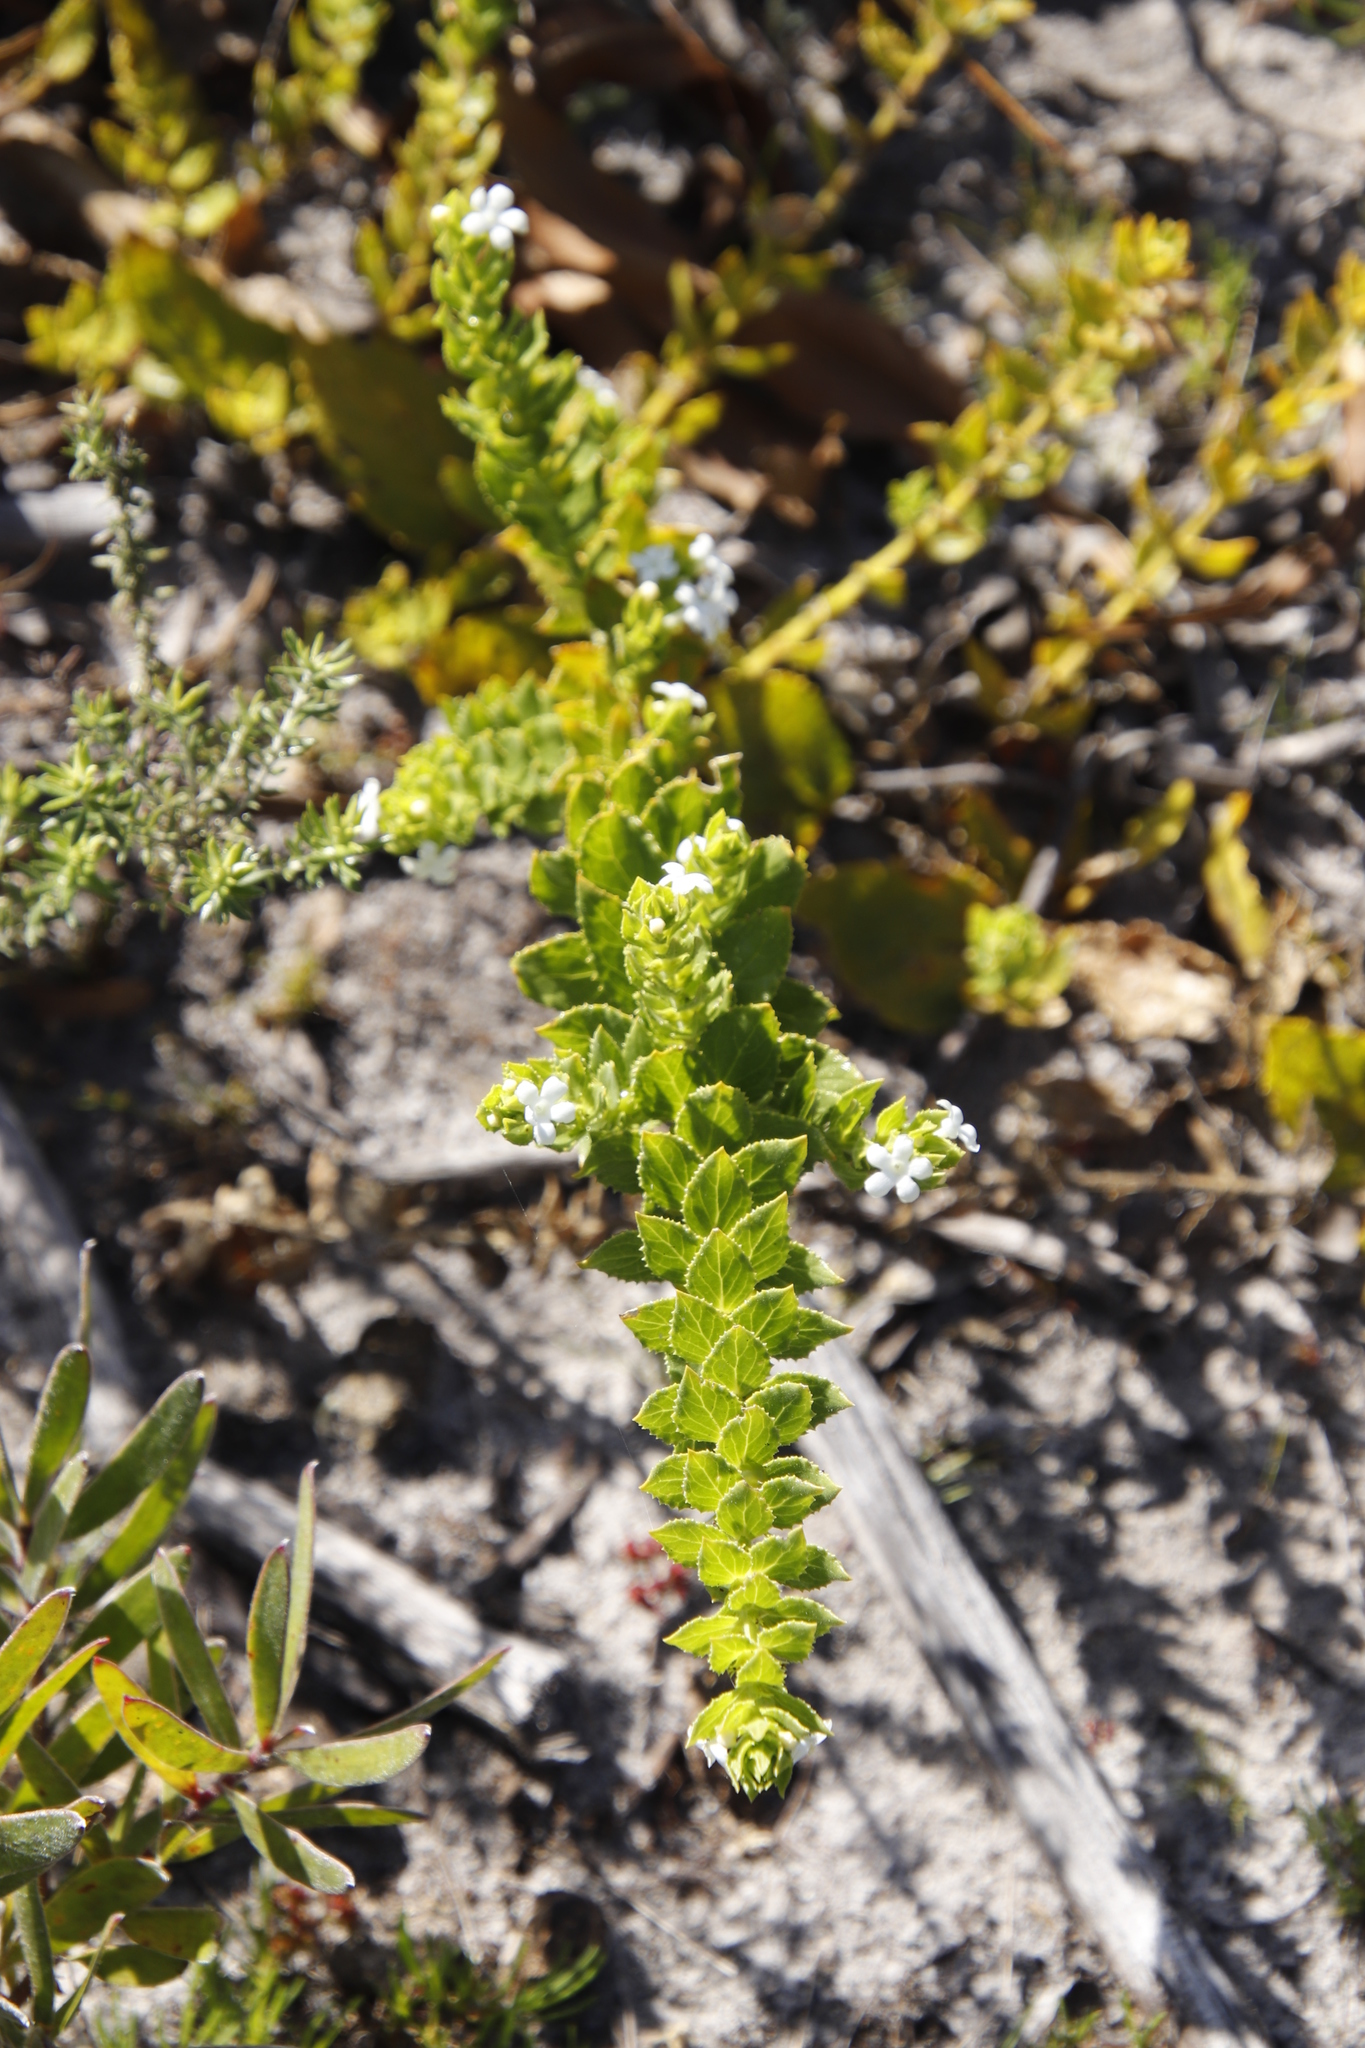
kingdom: Plantae
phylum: Tracheophyta
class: Magnoliopsida
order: Lamiales
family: Scrophulariaceae
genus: Oftia
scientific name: Oftia africana
